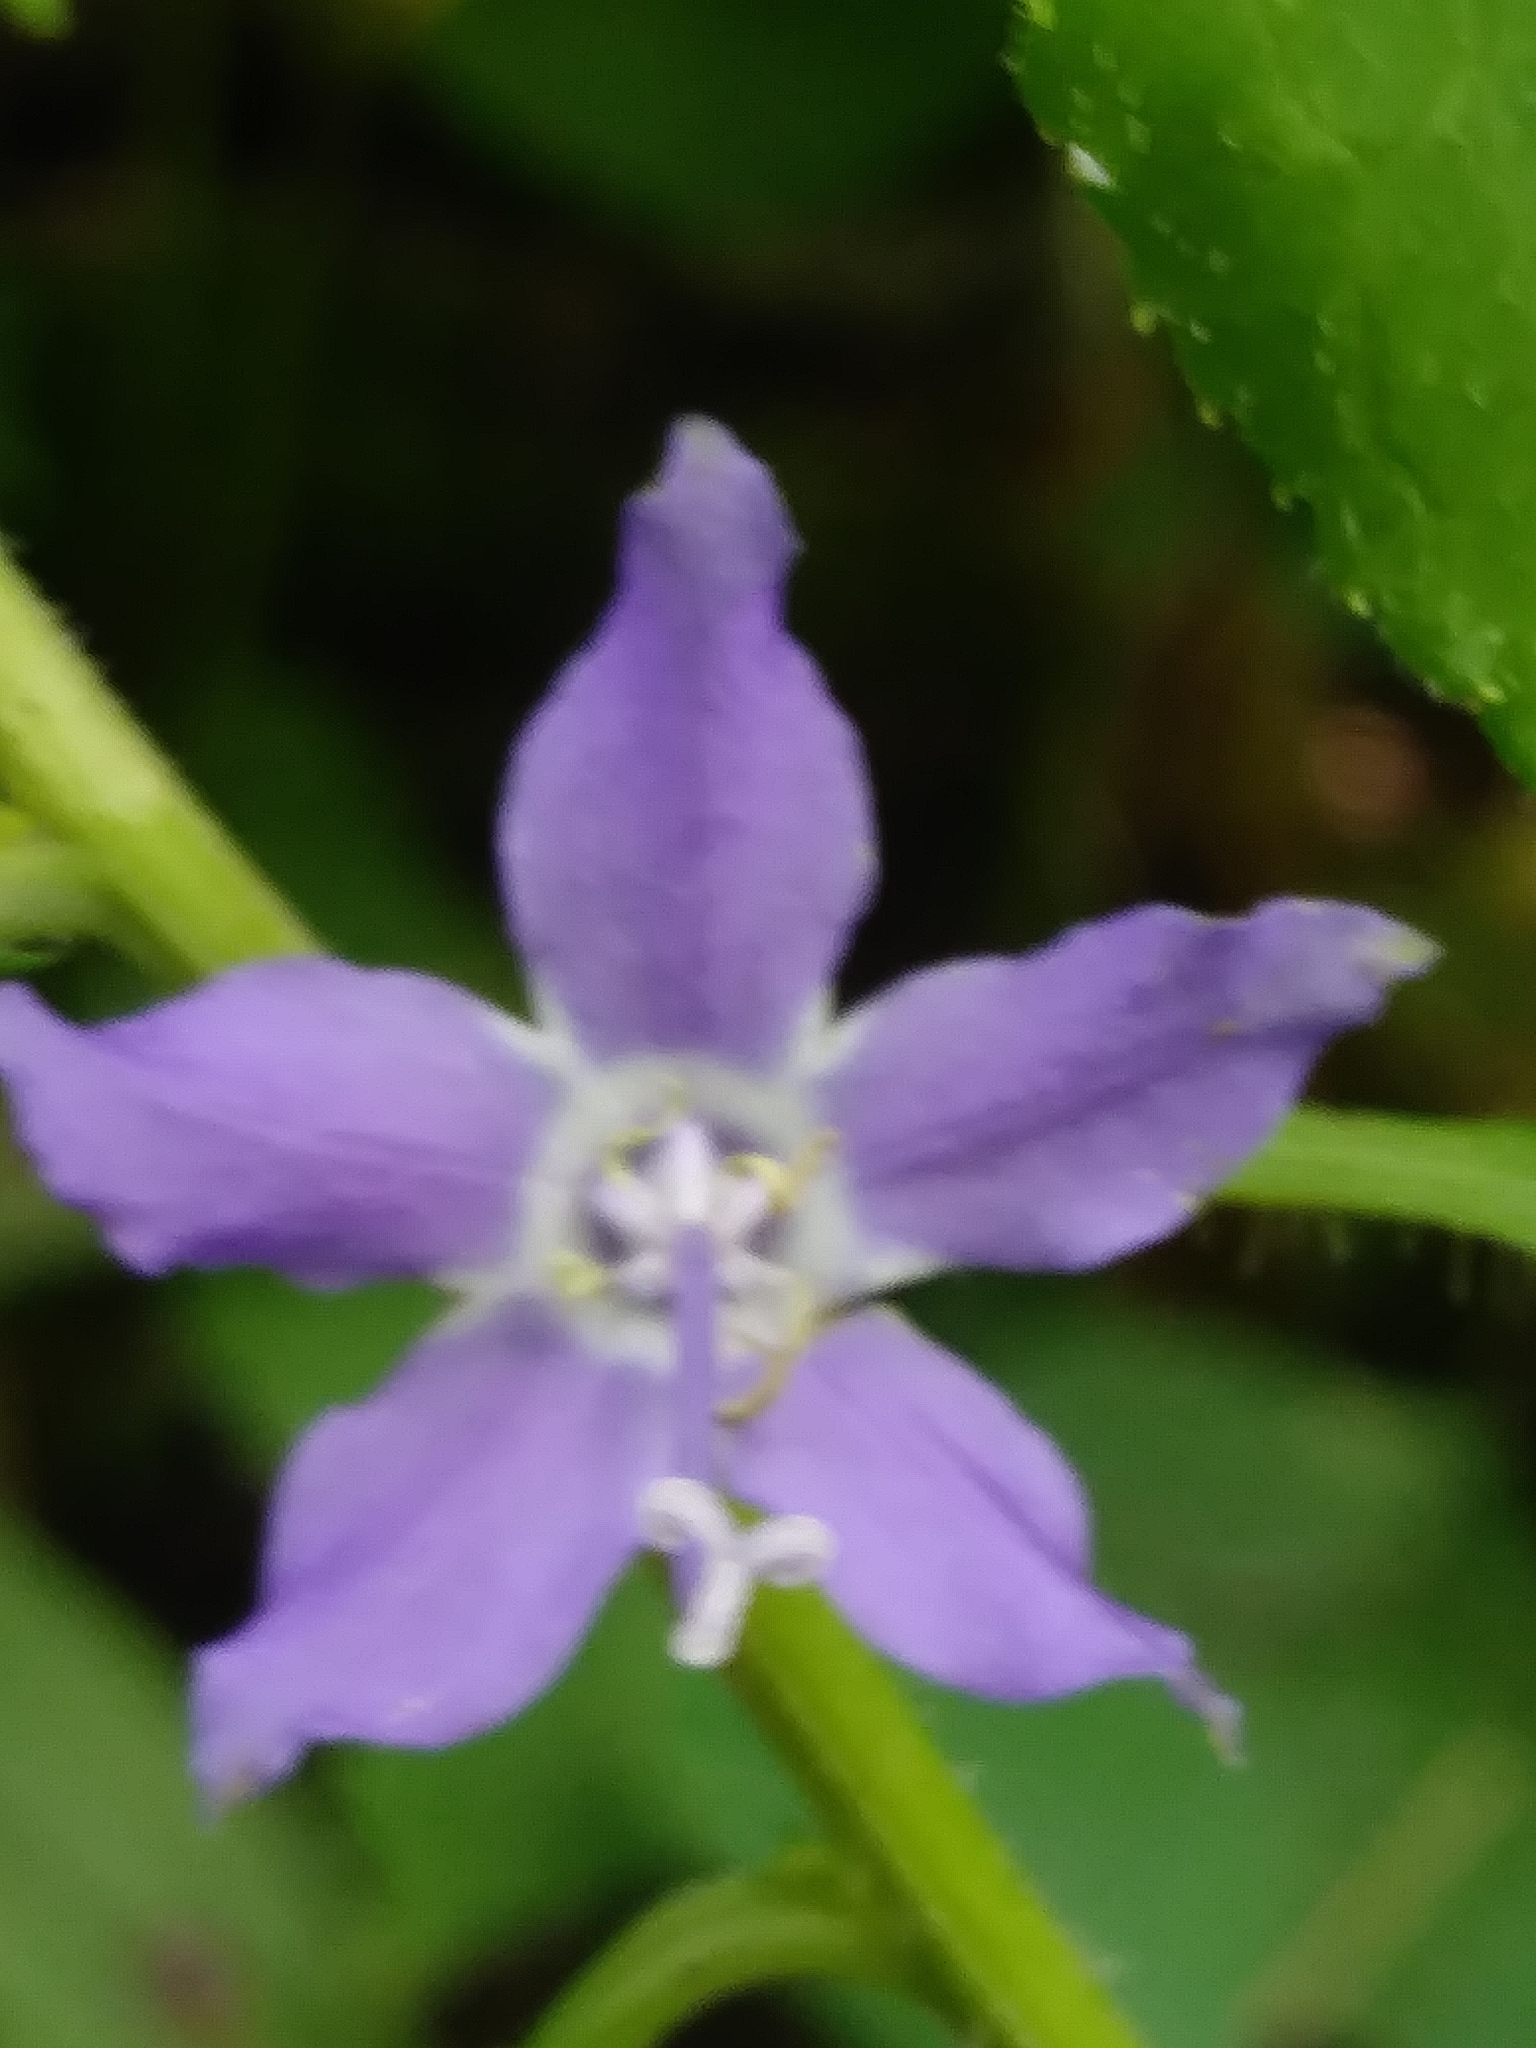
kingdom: Plantae
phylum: Tracheophyta
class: Magnoliopsida
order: Asterales
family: Campanulaceae
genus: Campanulastrum
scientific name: Campanulastrum americanum
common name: American bellflower
